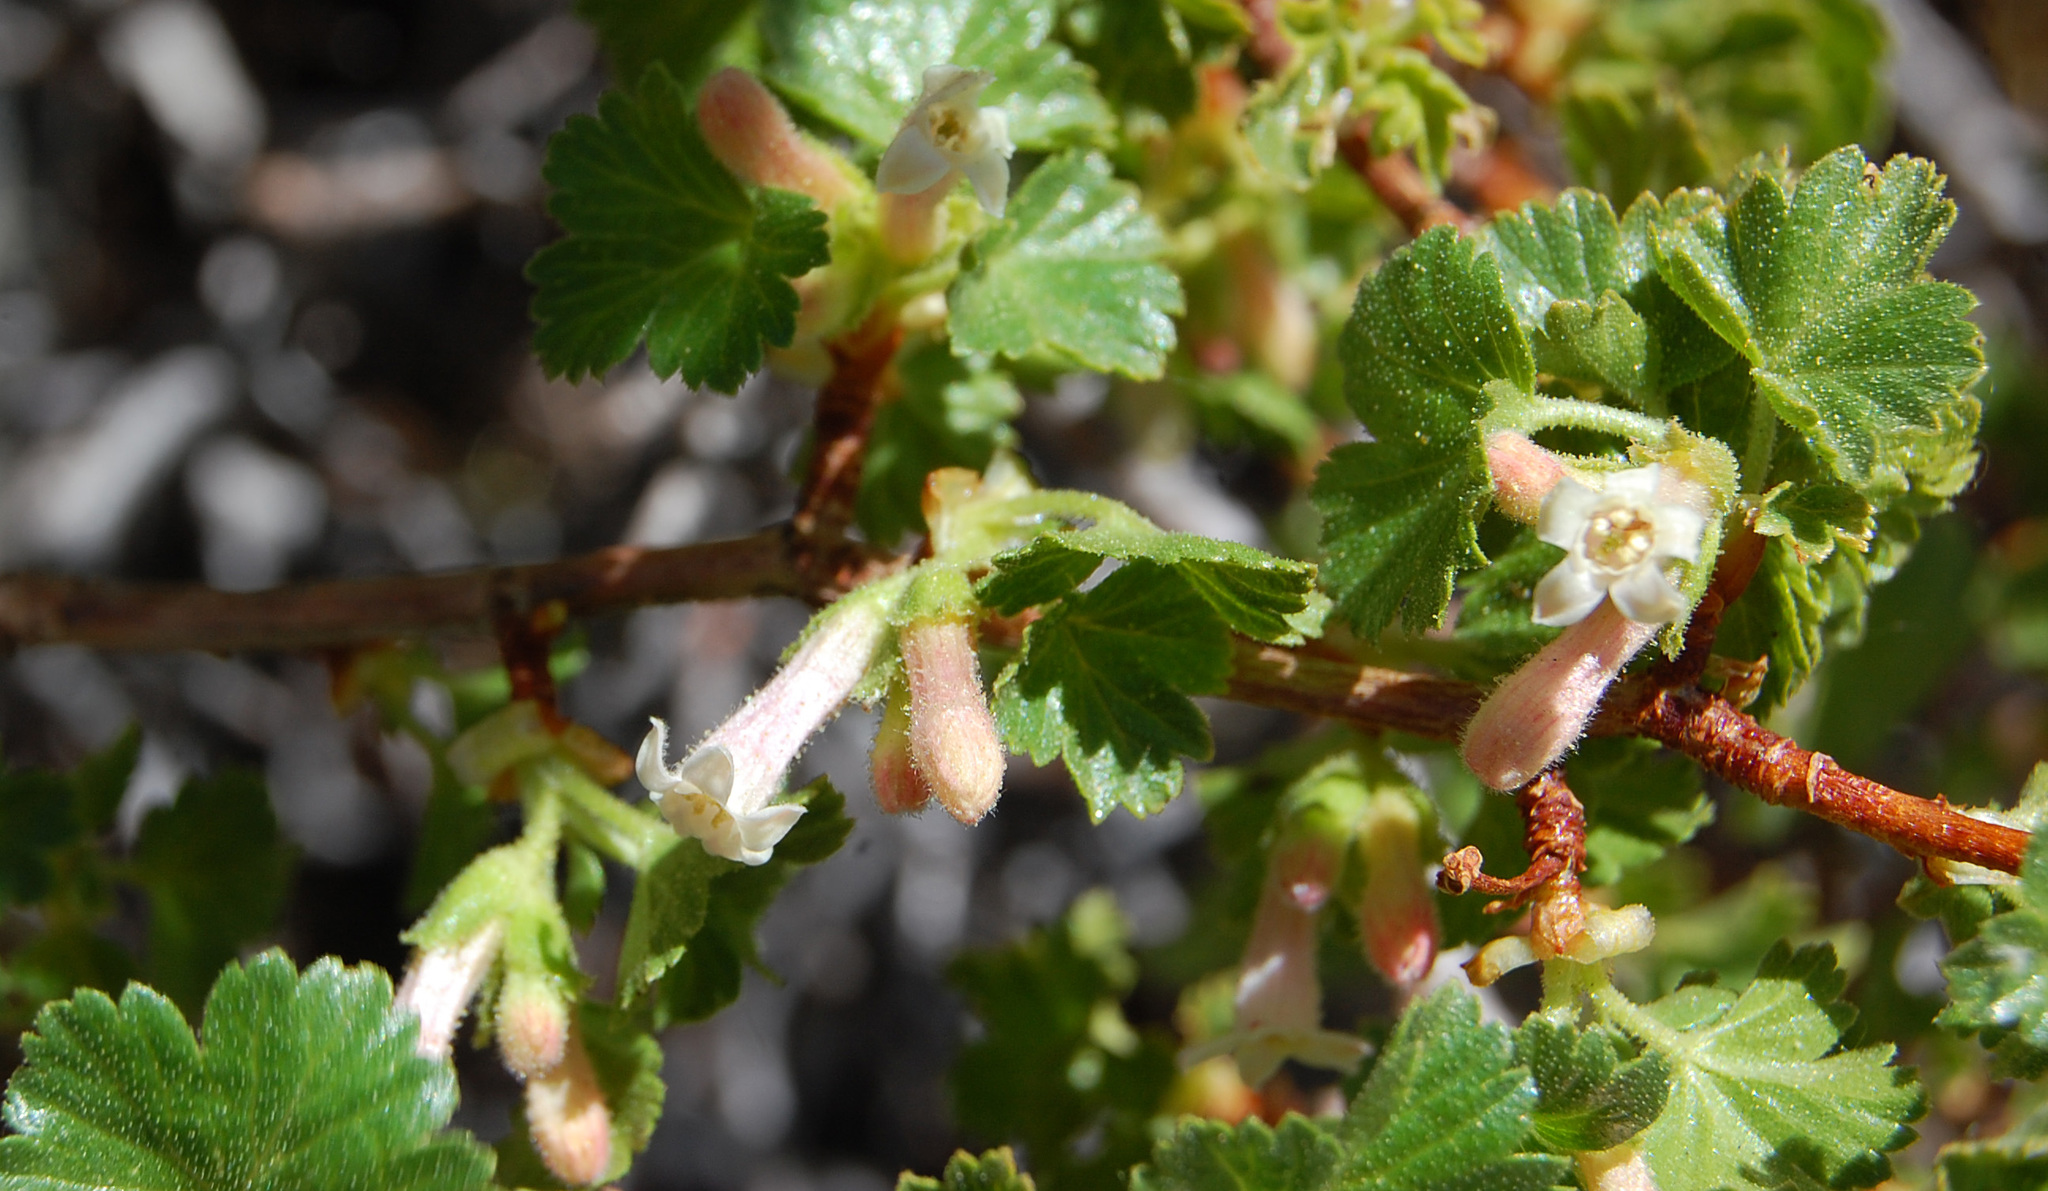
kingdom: Plantae
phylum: Tracheophyta
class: Magnoliopsida
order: Saxifragales
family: Grossulariaceae
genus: Ribes
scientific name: Ribes cereum
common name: Wax currant
